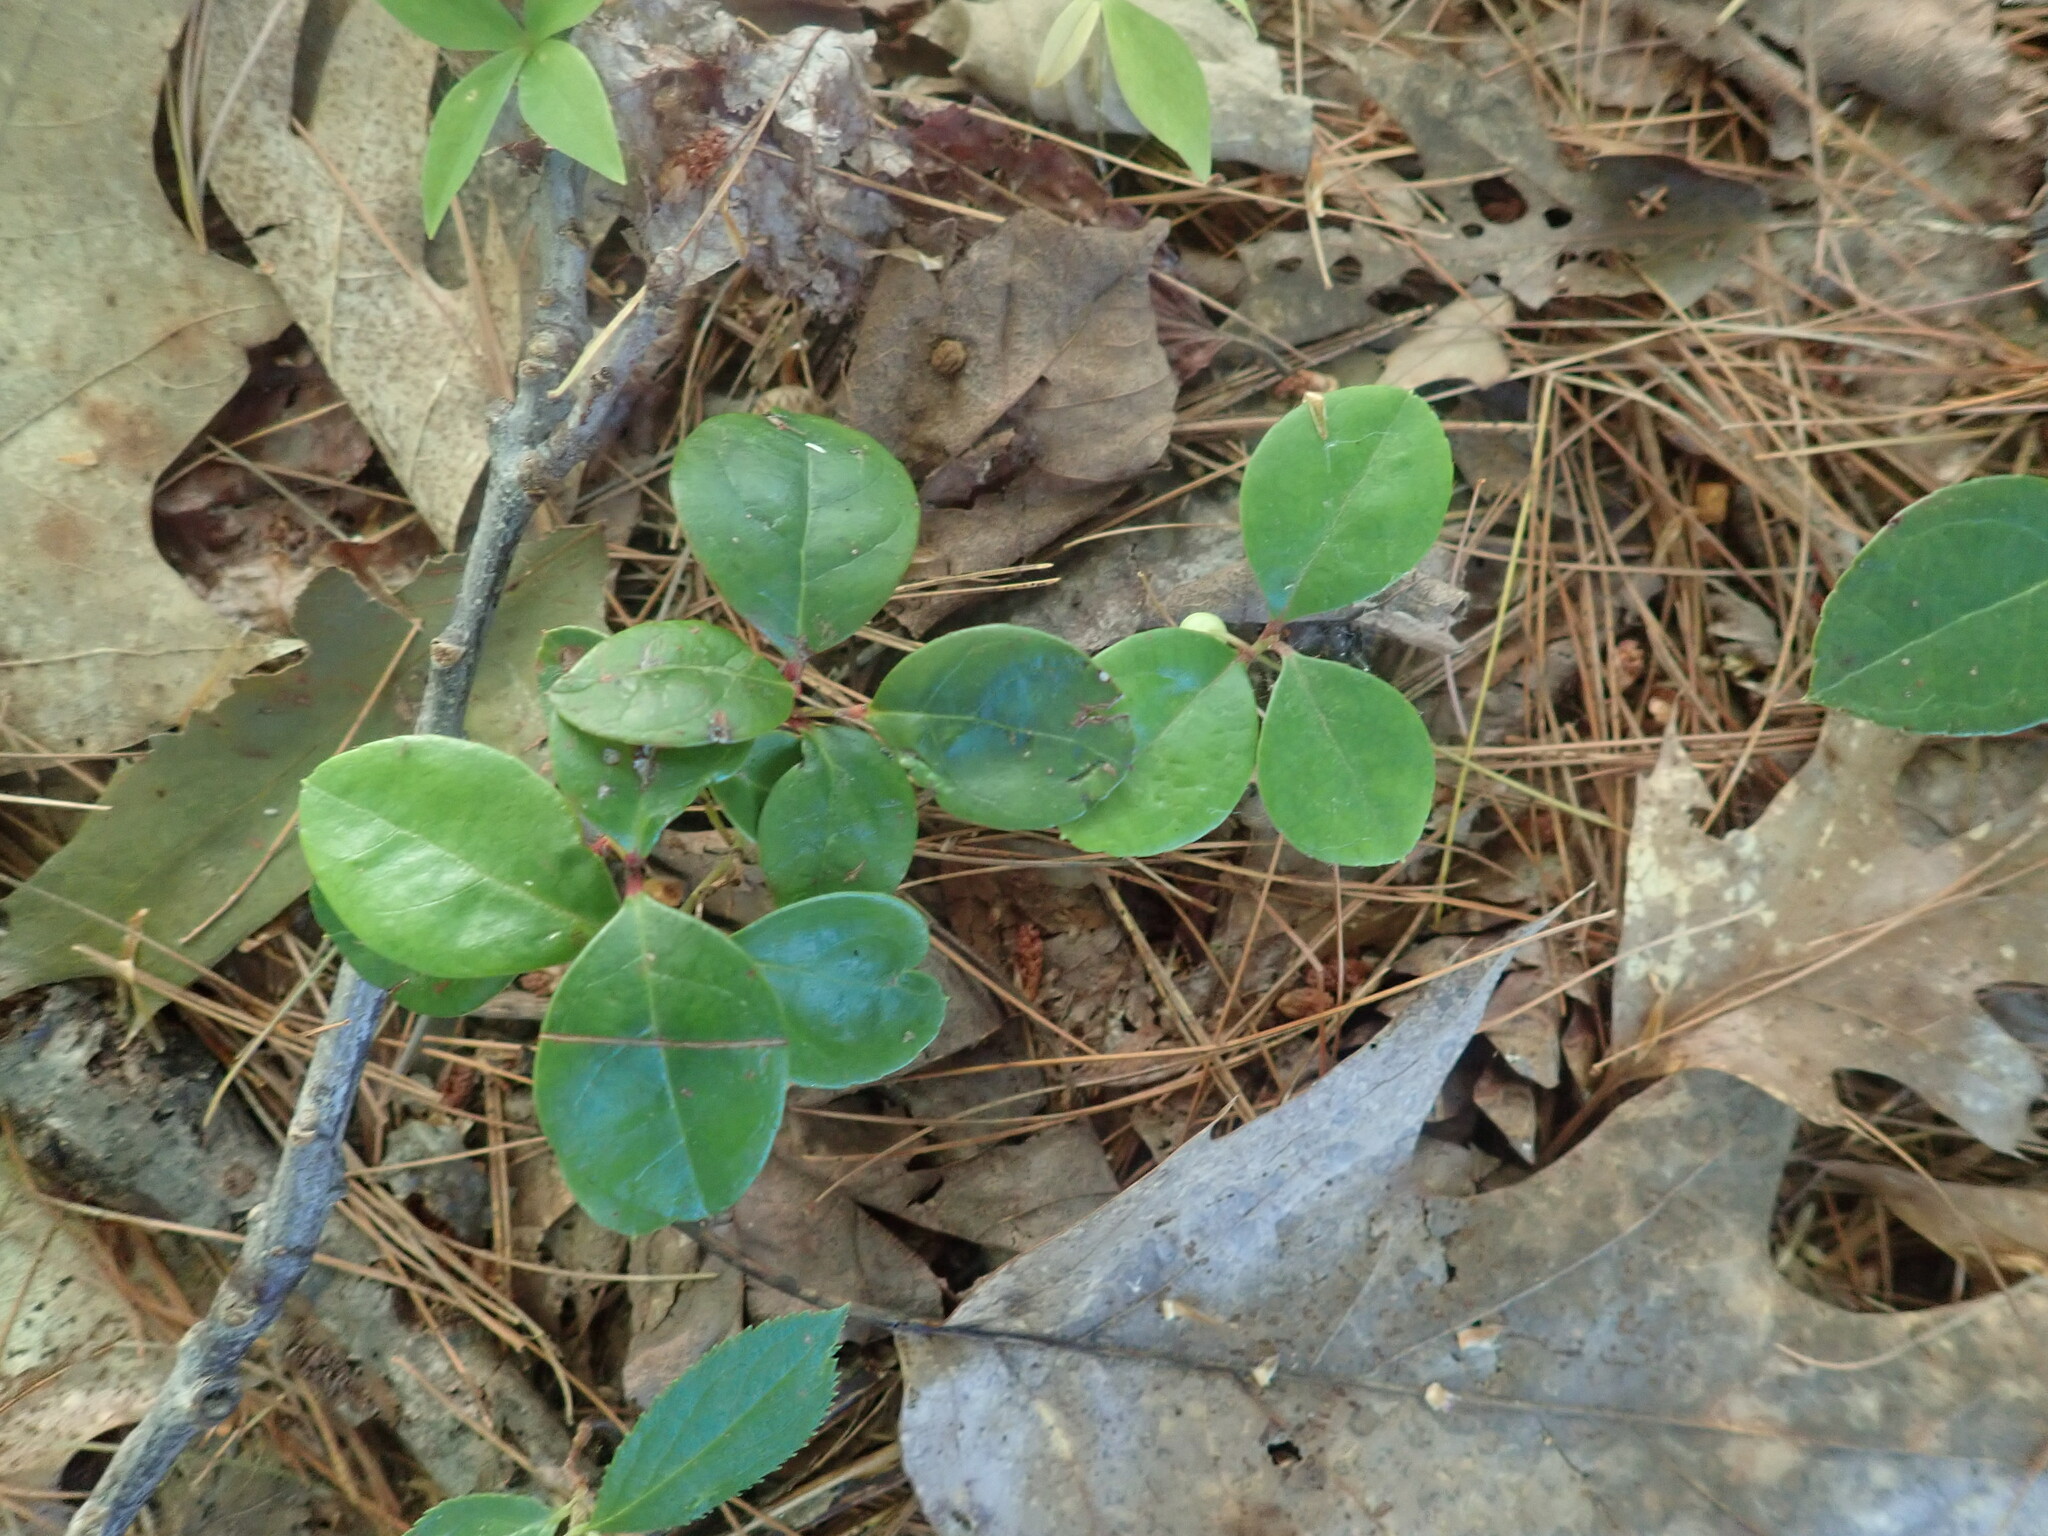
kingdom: Plantae
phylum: Tracheophyta
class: Magnoliopsida
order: Ericales
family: Ericaceae
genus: Gaultheria
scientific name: Gaultheria procumbens
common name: Checkerberry
